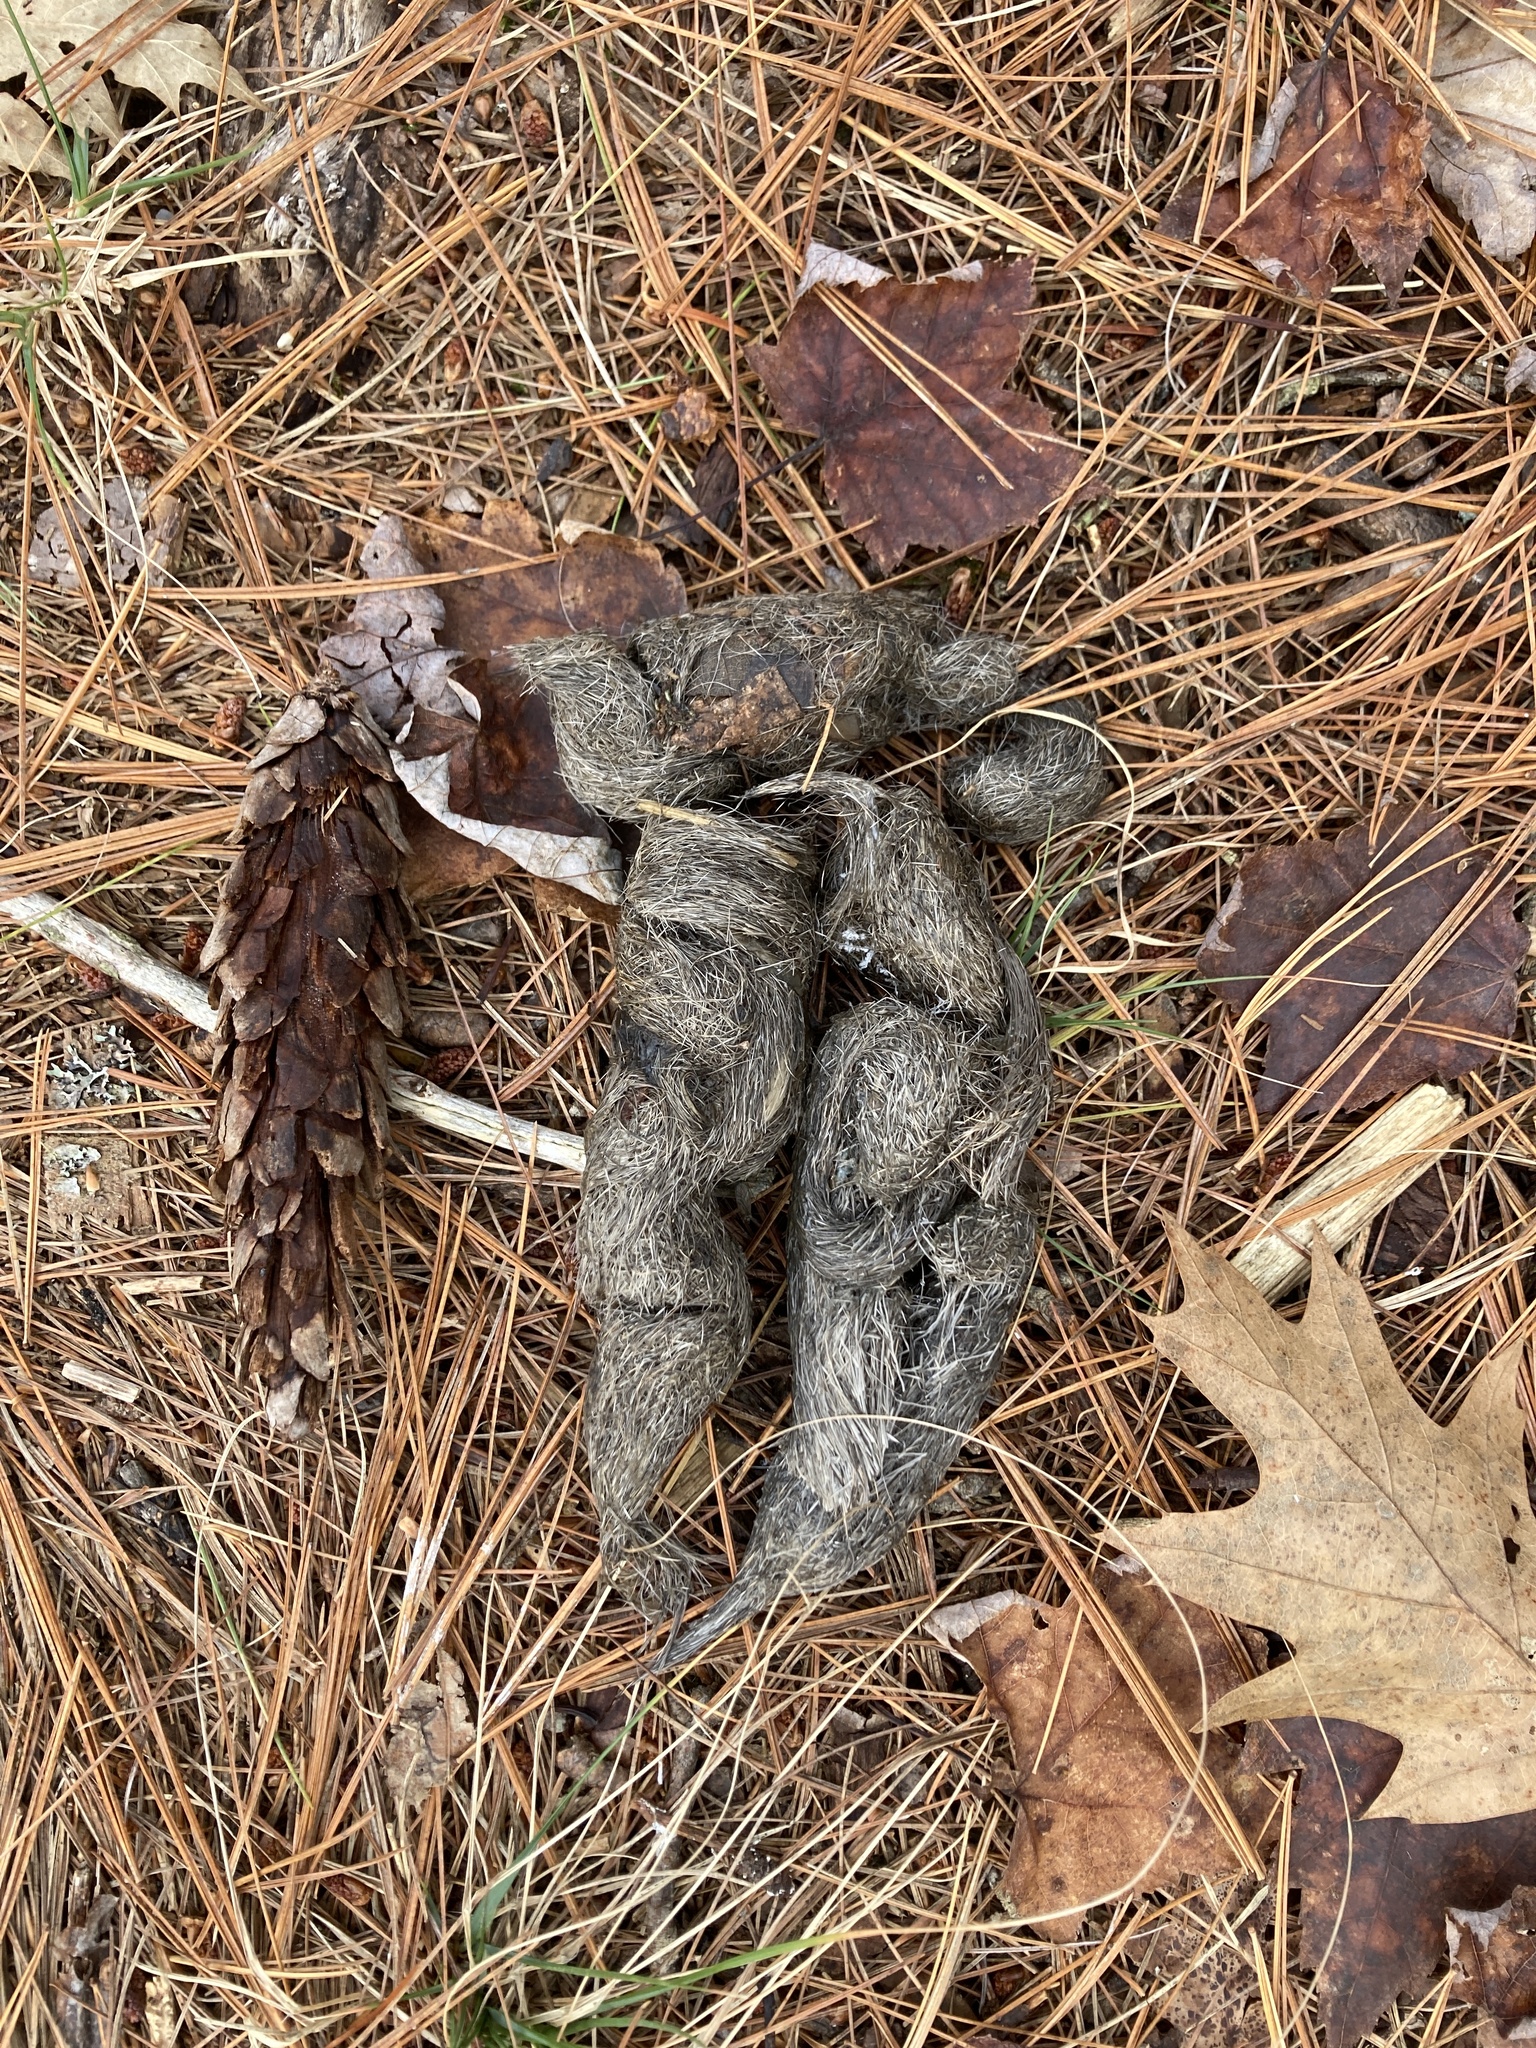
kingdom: Animalia
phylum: Chordata
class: Mammalia
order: Carnivora
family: Canidae
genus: Canis
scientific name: Canis latrans
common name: Coyote
